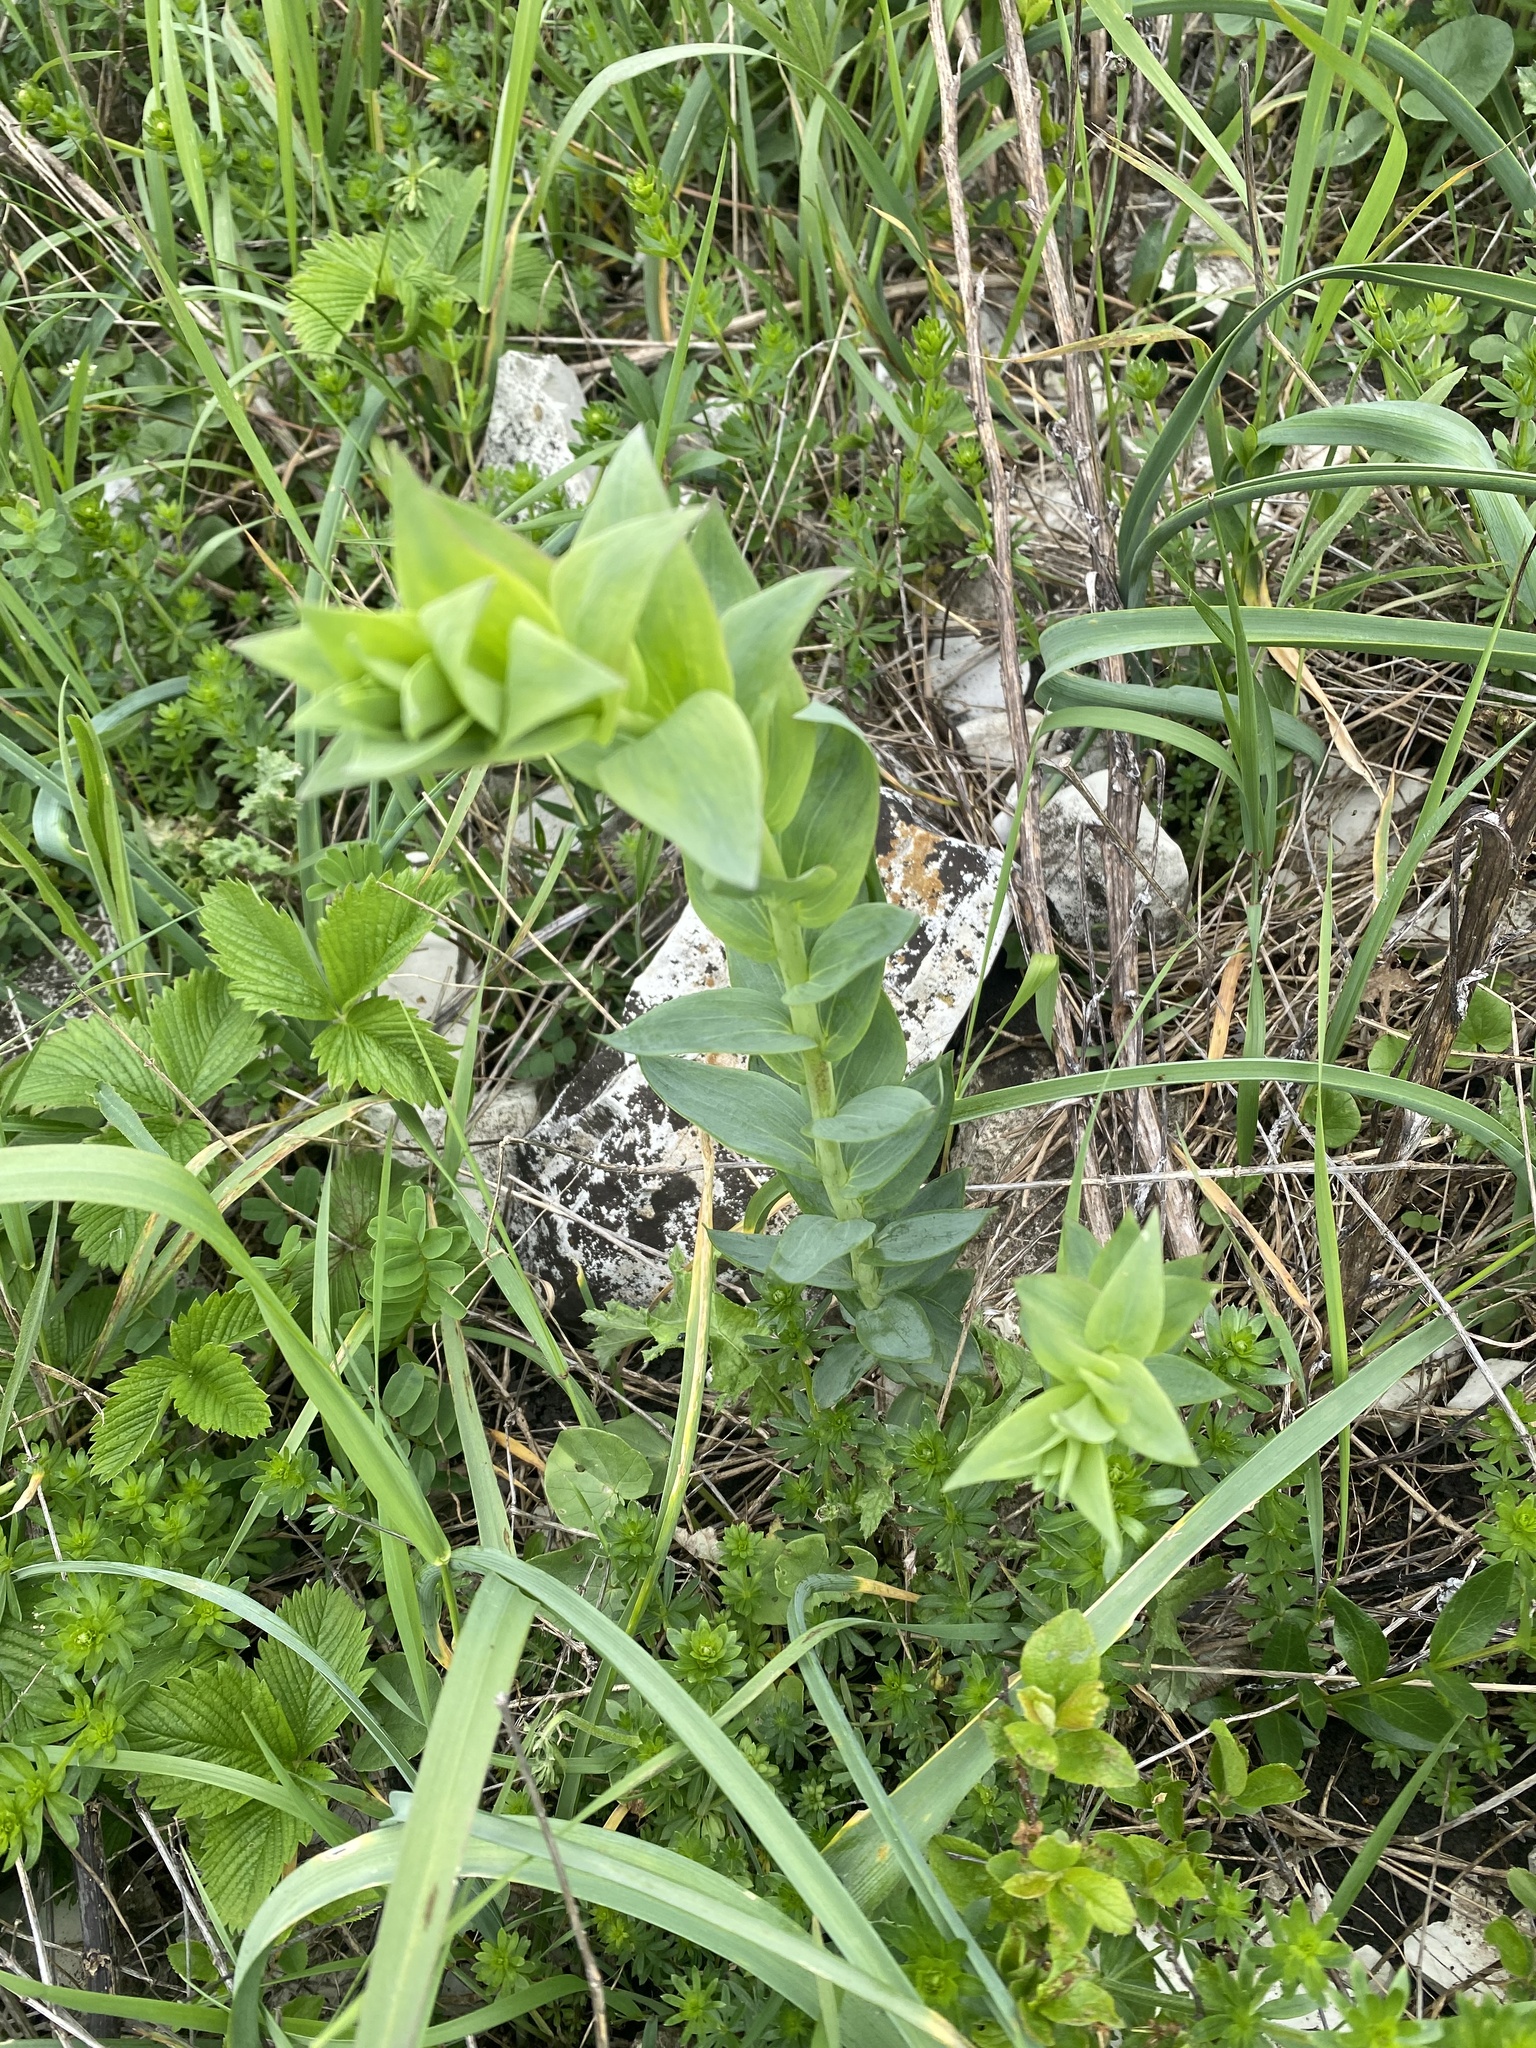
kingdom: Plantae
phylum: Tracheophyta
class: Magnoliopsida
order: Lamiales
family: Plantaginaceae
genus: Linaria
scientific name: Linaria genistifolia
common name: Broomleaf toadflax
